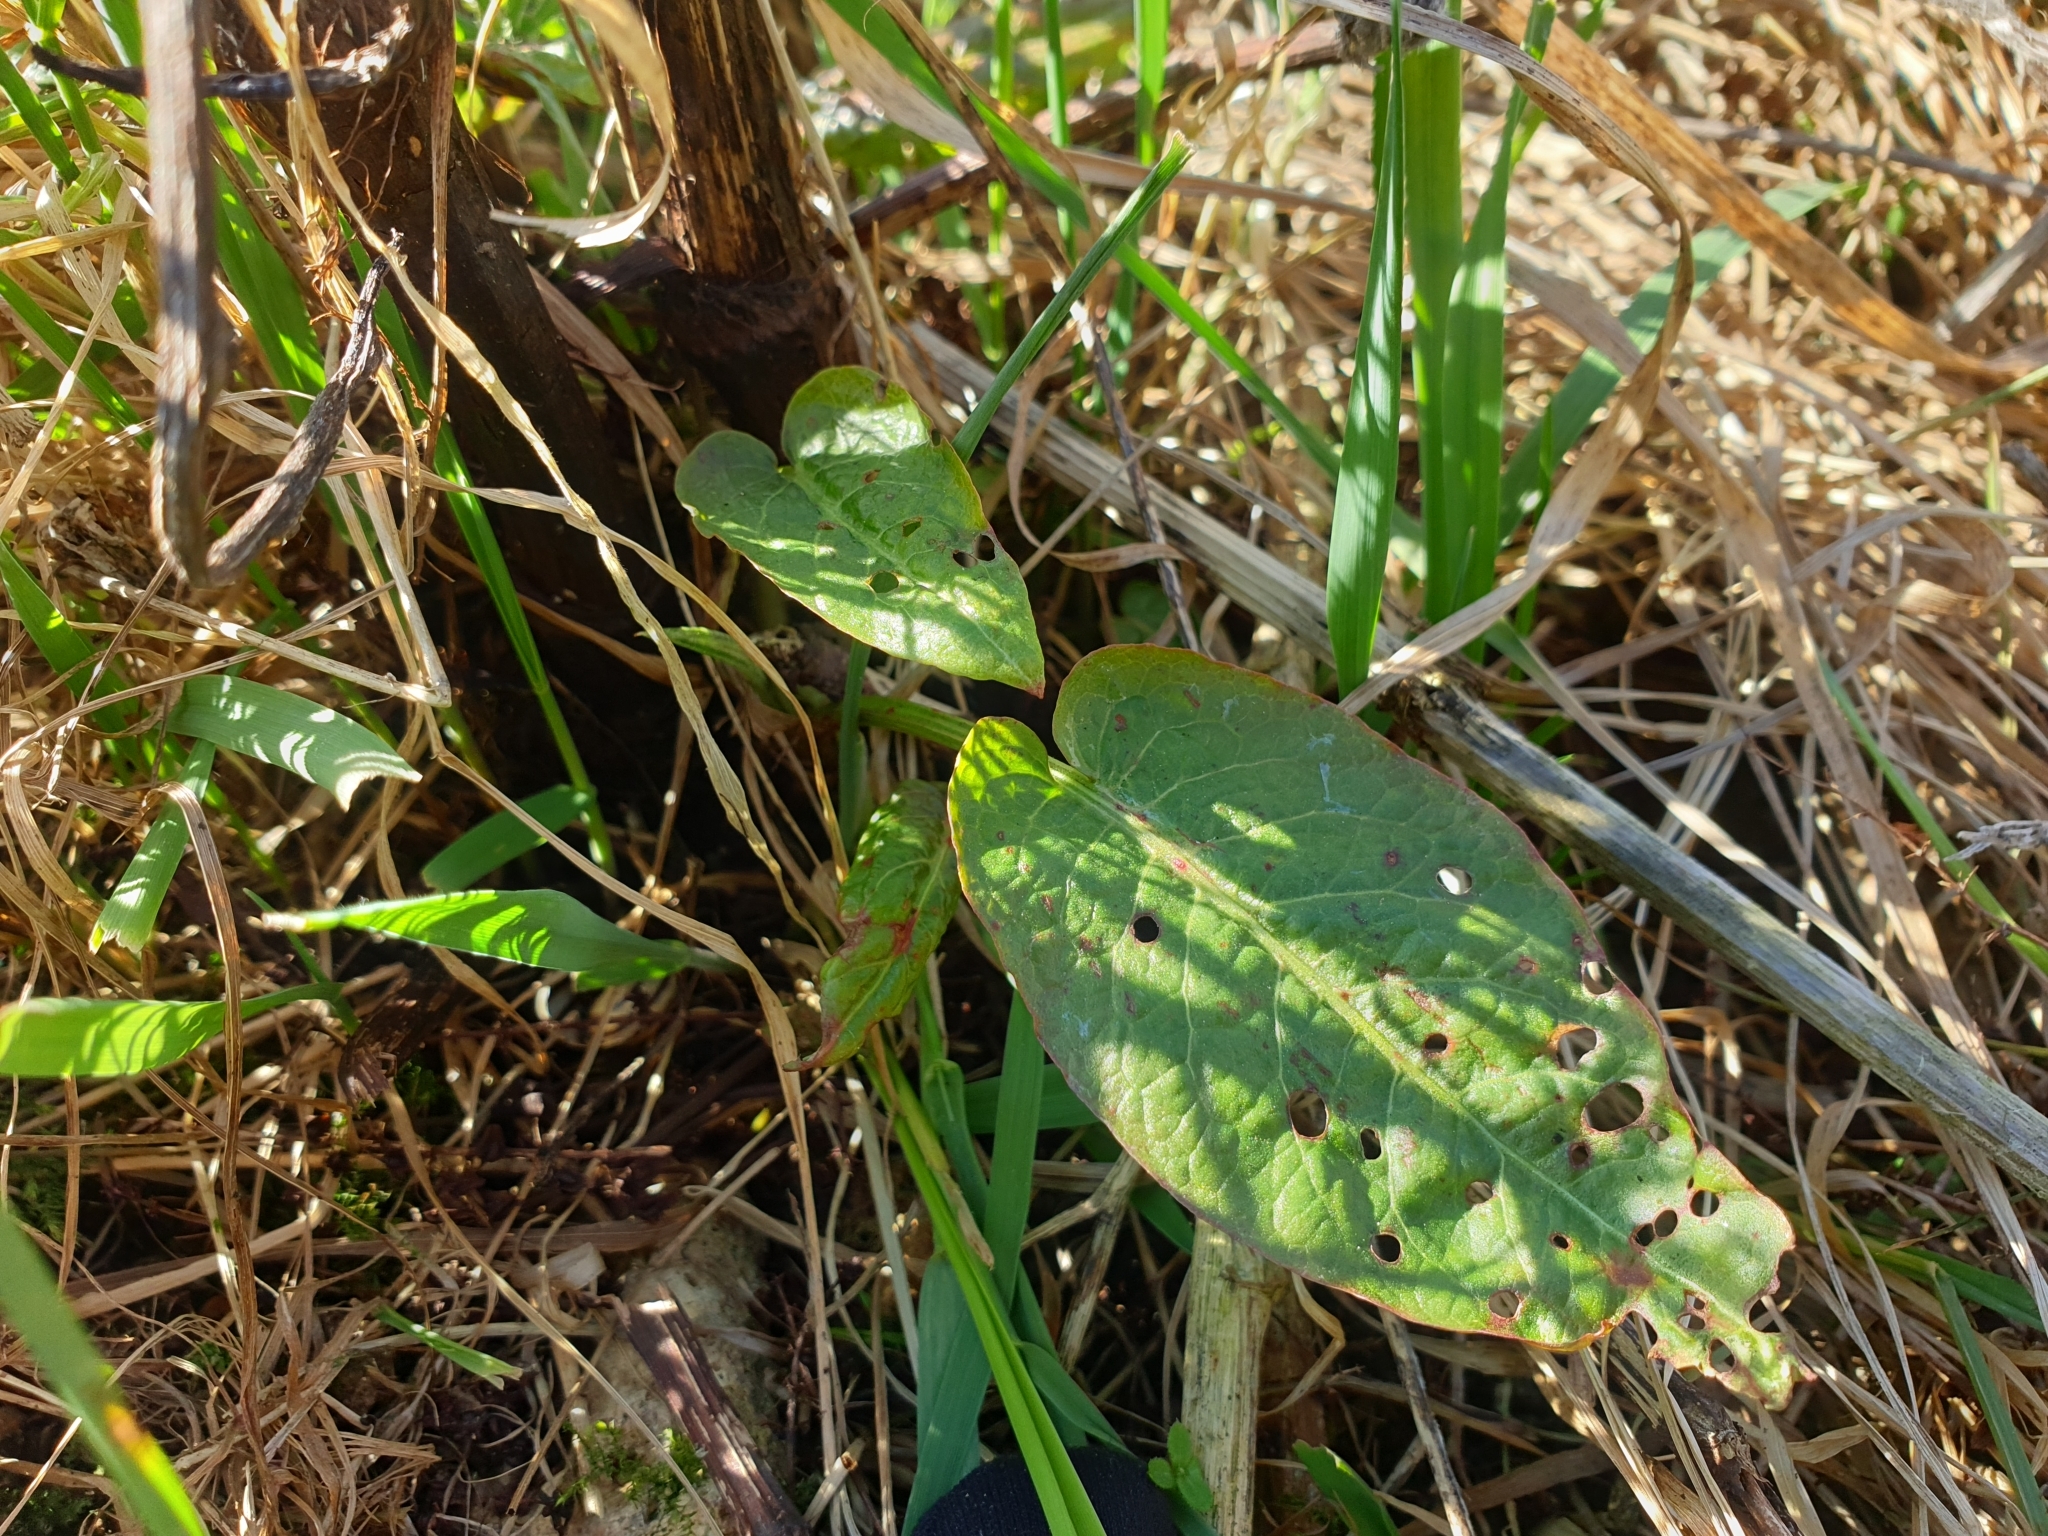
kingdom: Plantae
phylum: Tracheophyta
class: Magnoliopsida
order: Caryophyllales
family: Polygonaceae
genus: Rumex
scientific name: Rumex obtusifolius
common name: Bitter dock
